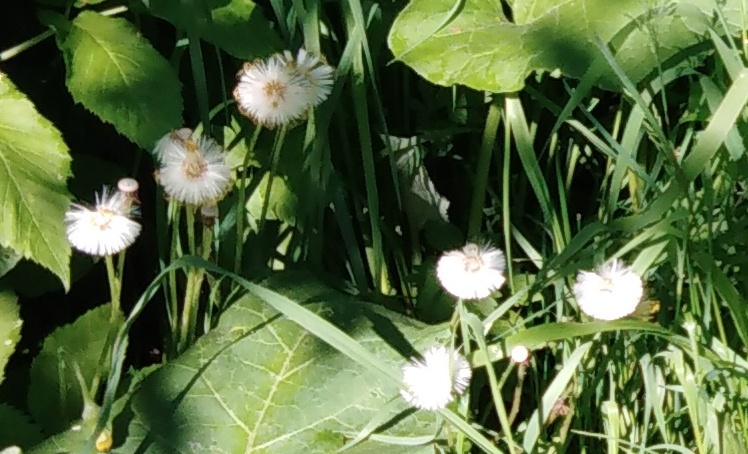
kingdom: Plantae
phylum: Tracheophyta
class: Magnoliopsida
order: Asterales
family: Asteraceae
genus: Tussilago
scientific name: Tussilago farfara
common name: Coltsfoot
